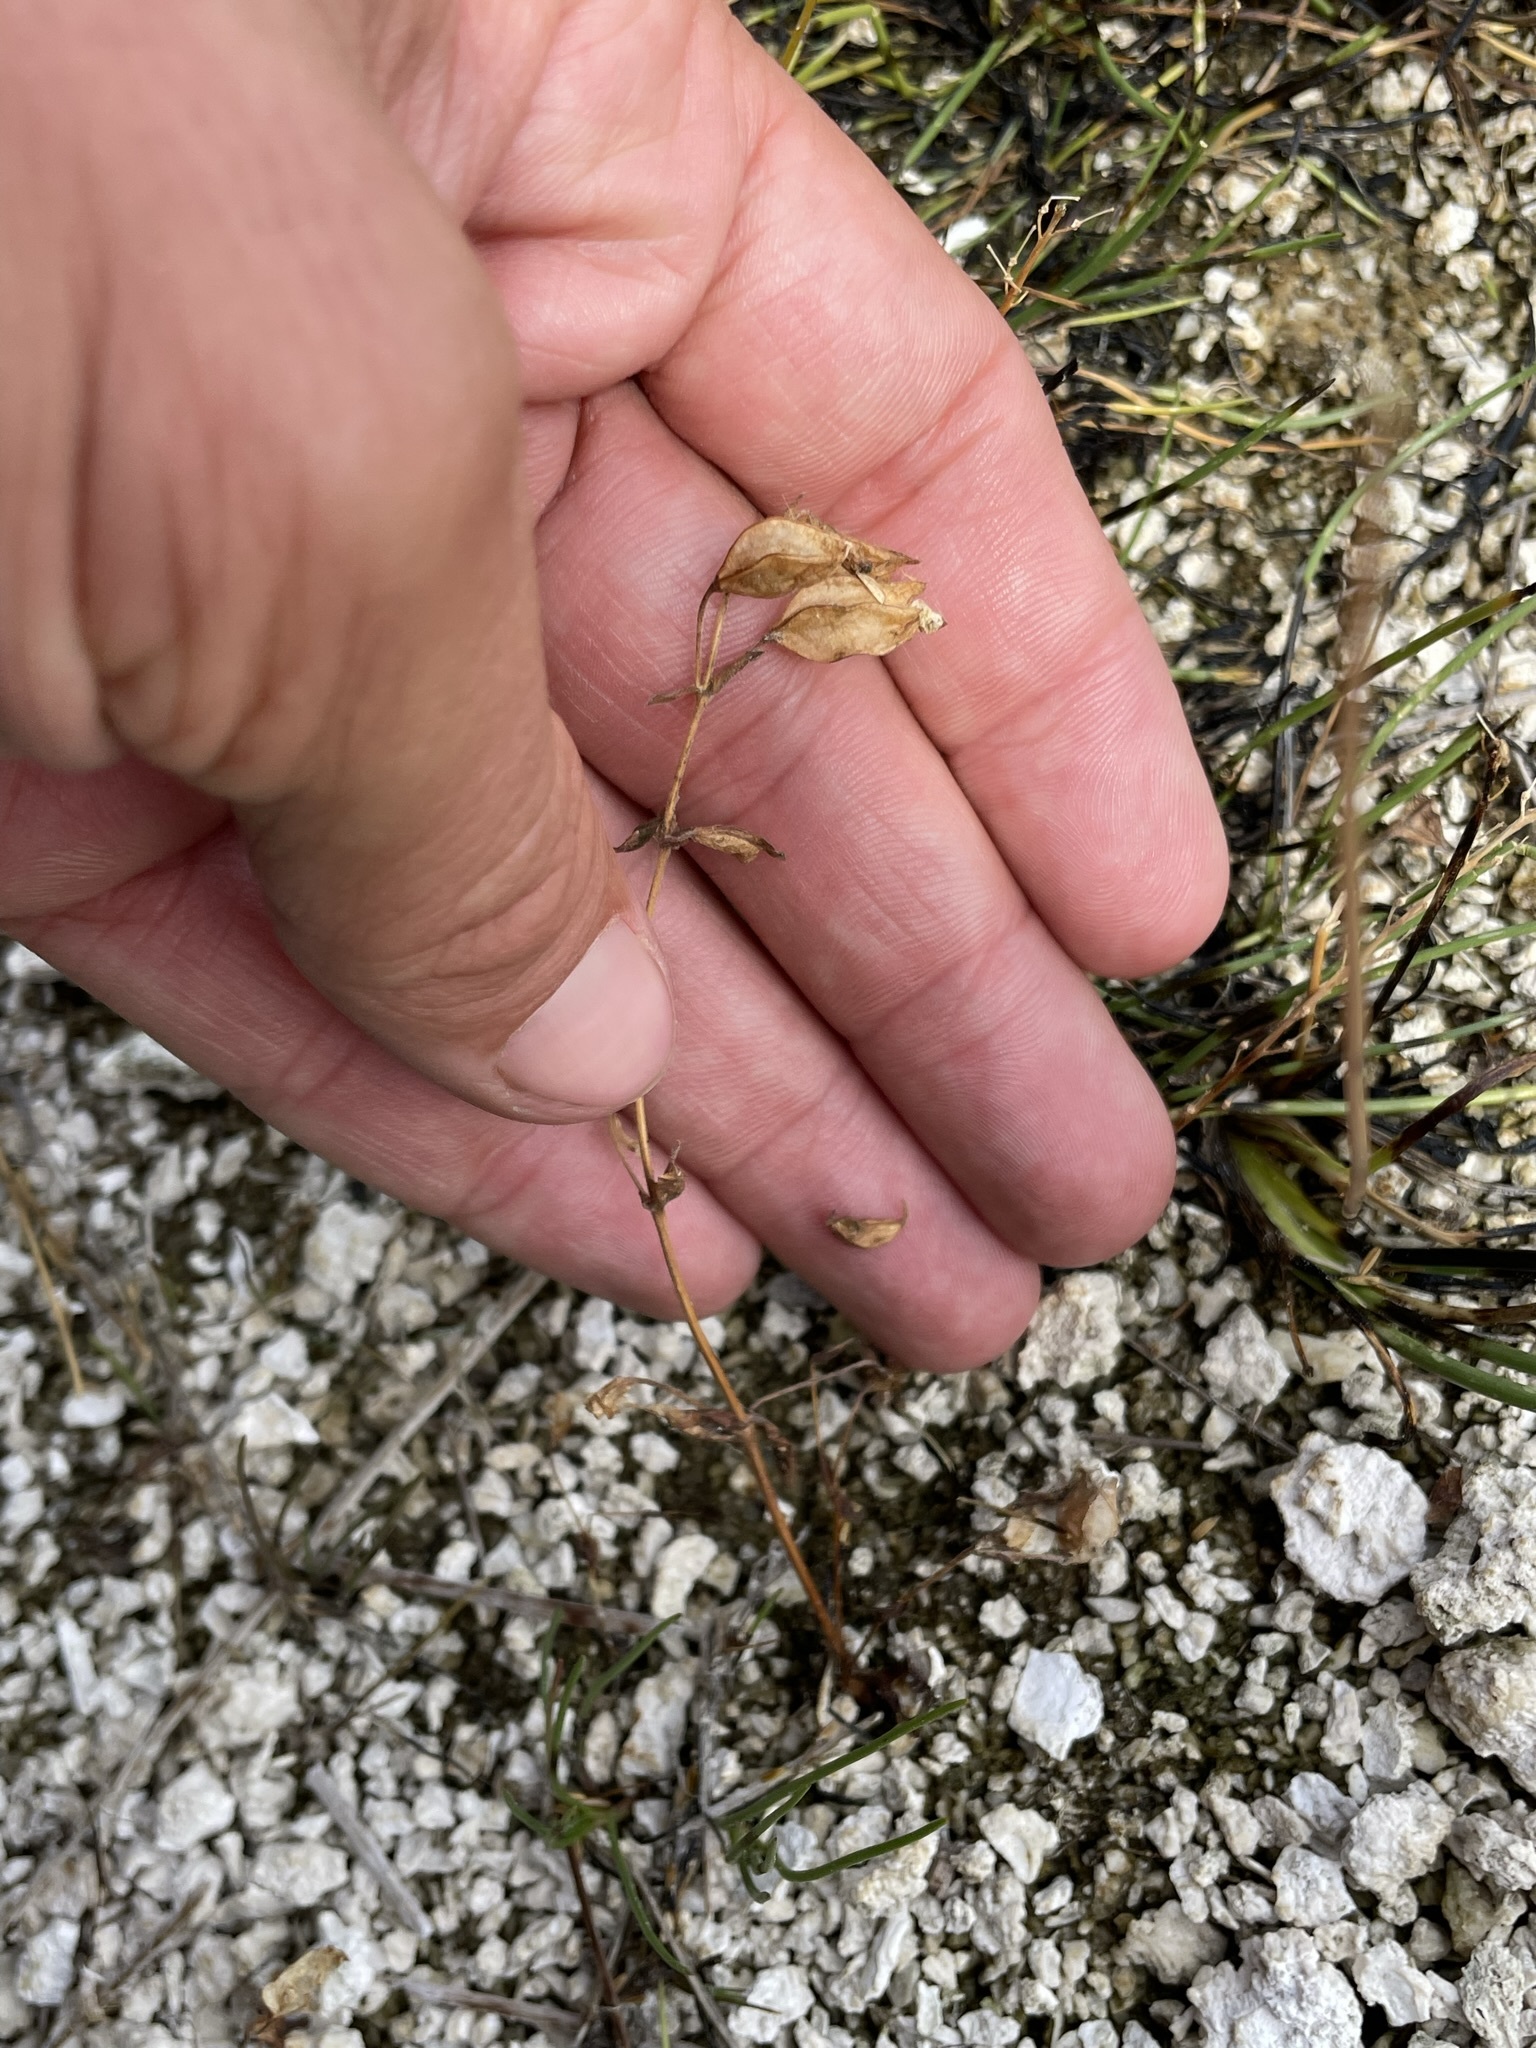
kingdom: Plantae
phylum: Tracheophyta
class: Magnoliopsida
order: Lamiales
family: Phrymaceae
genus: Erythranthe
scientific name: Erythranthe thermalis
